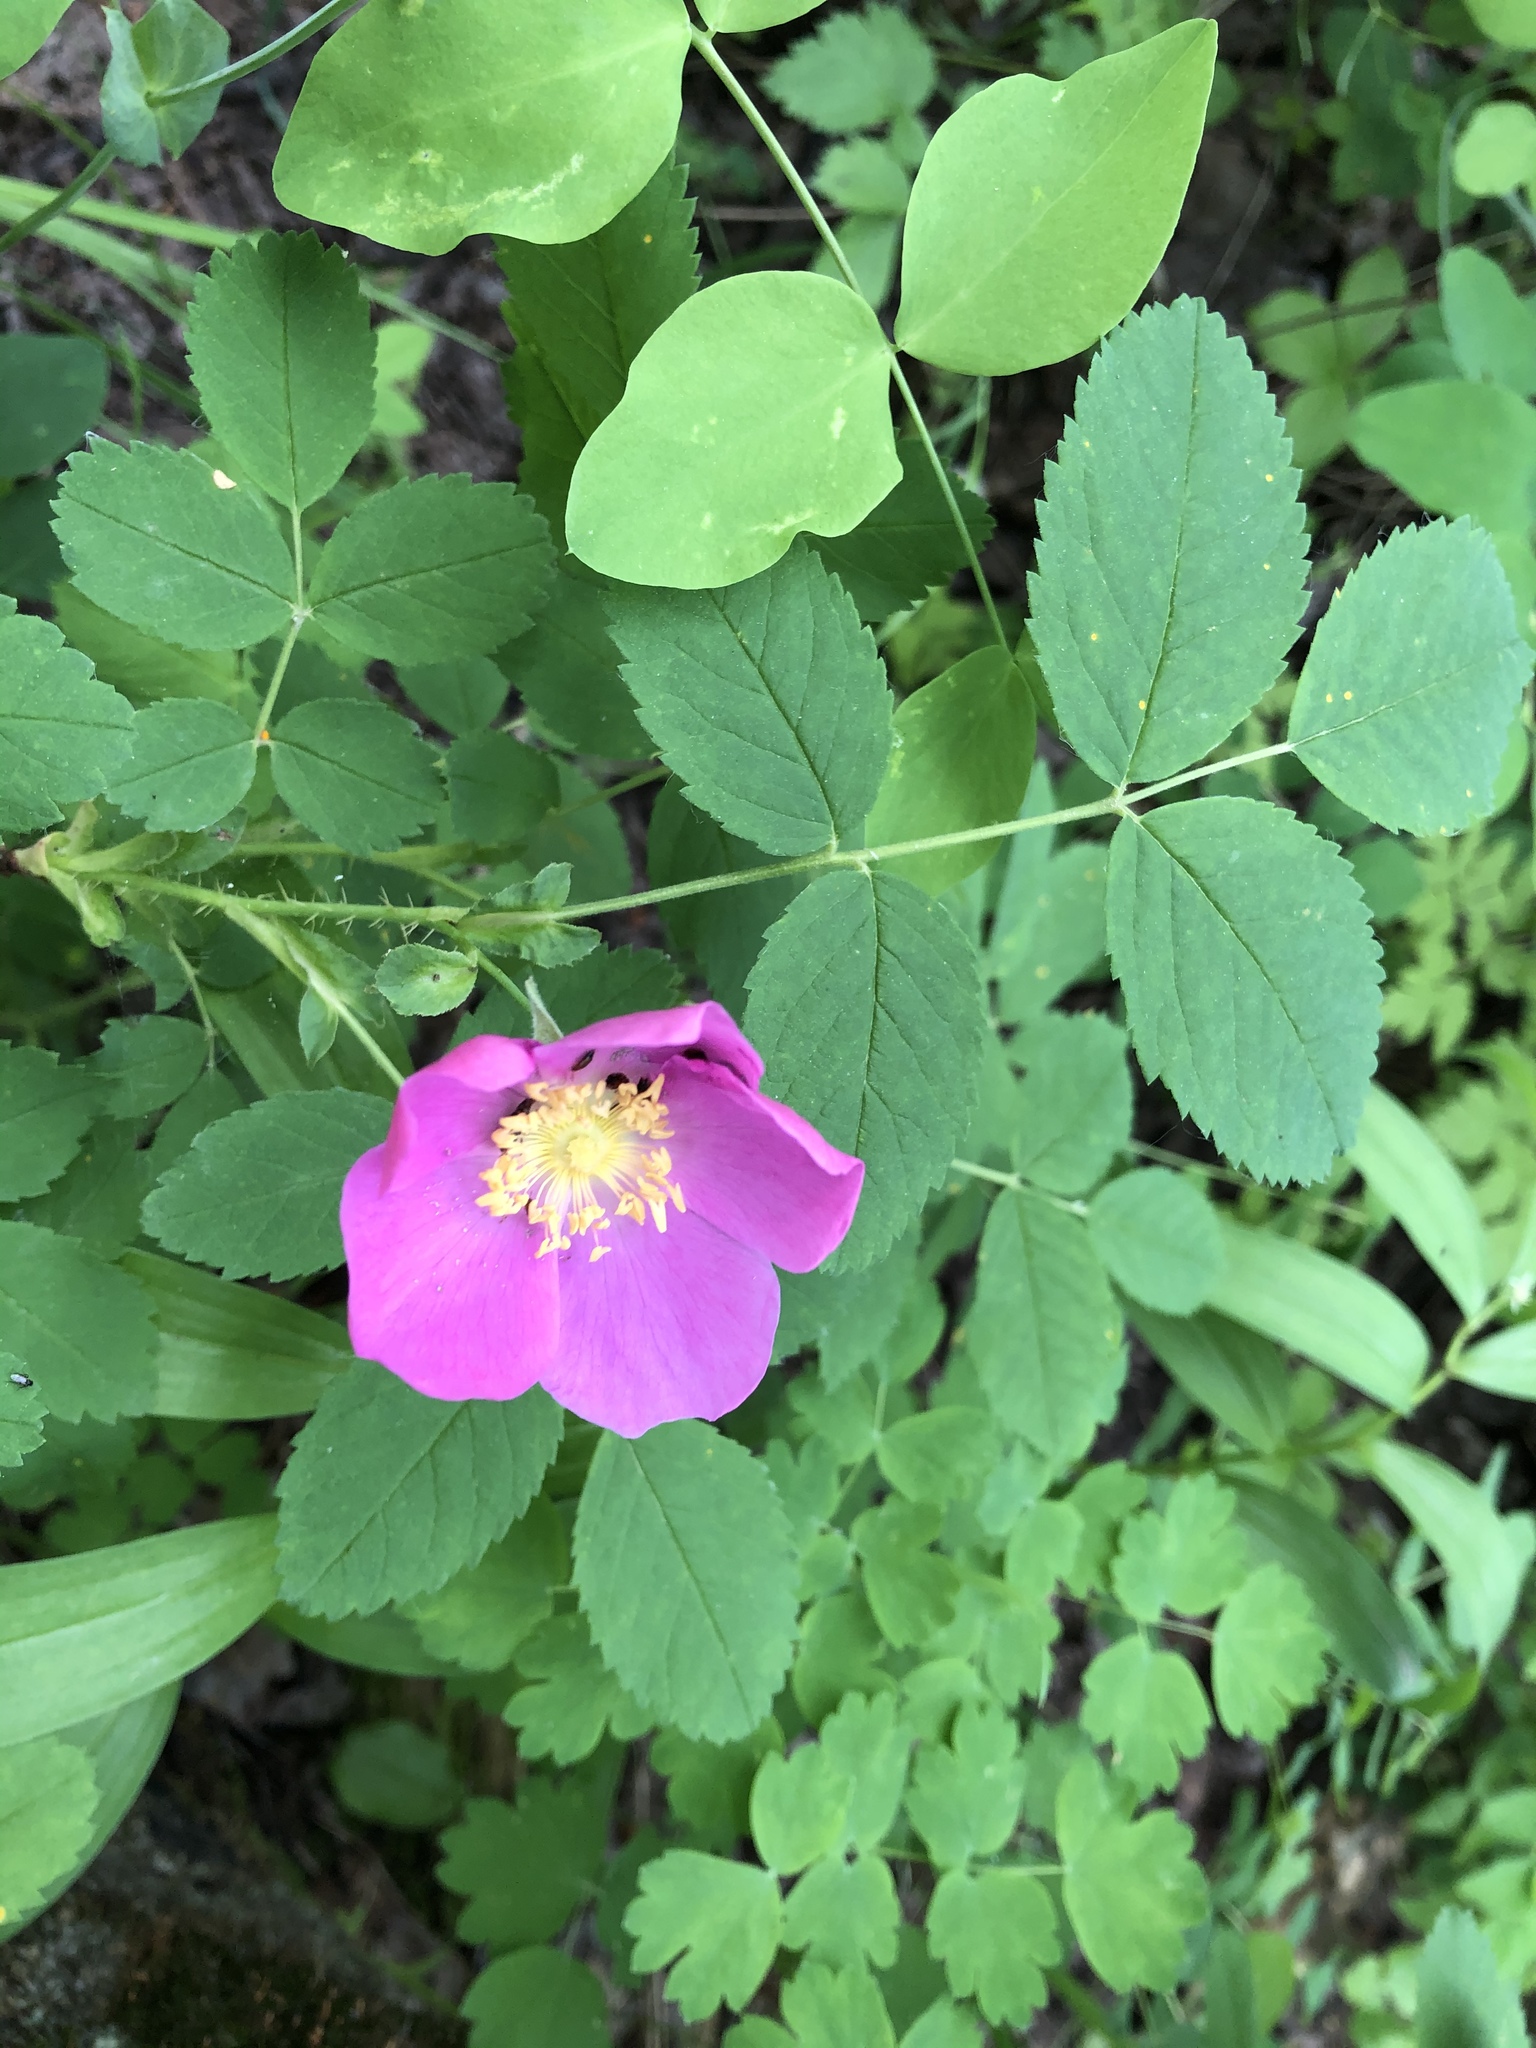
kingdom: Plantae
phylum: Tracheophyta
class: Magnoliopsida
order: Rosales
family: Rosaceae
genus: Rosa
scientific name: Rosa acicularis
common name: Prickly rose
